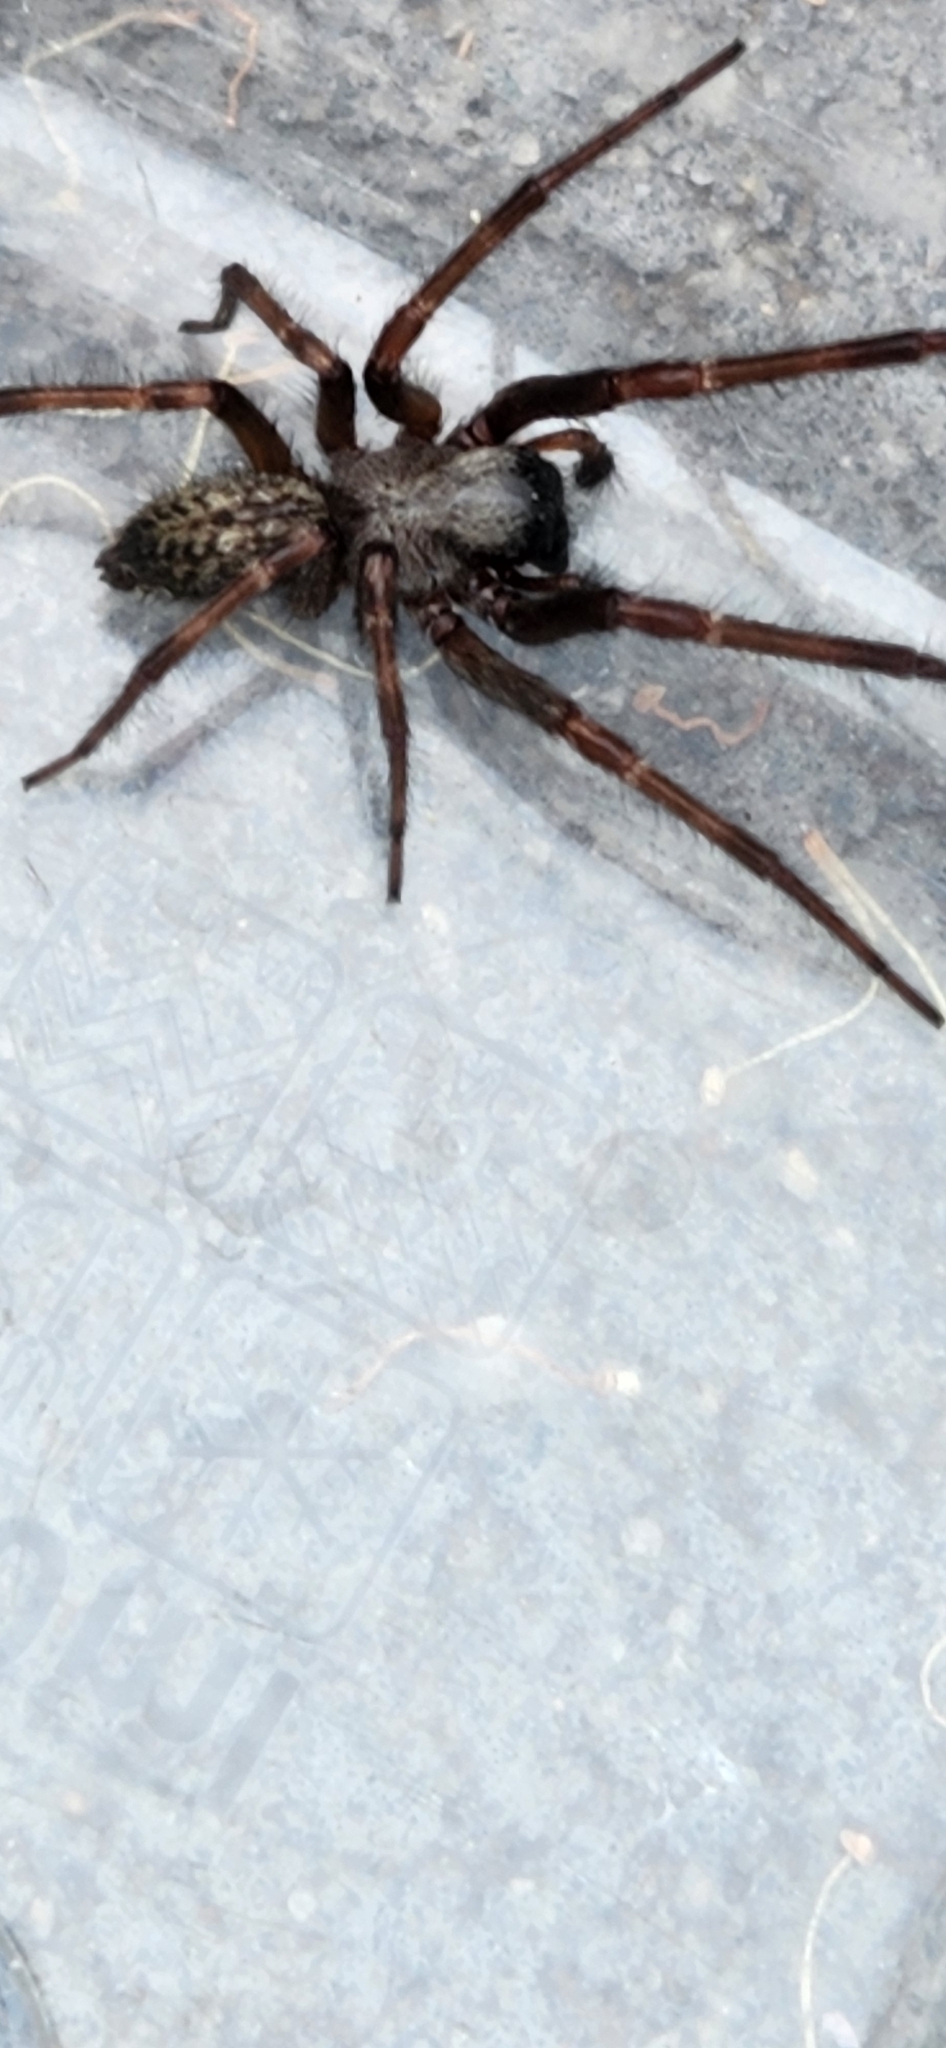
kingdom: Animalia
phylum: Arthropoda
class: Arachnida
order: Araneae
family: Desidae
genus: Badumna
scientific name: Badumna longinqua
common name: Gray house spider
